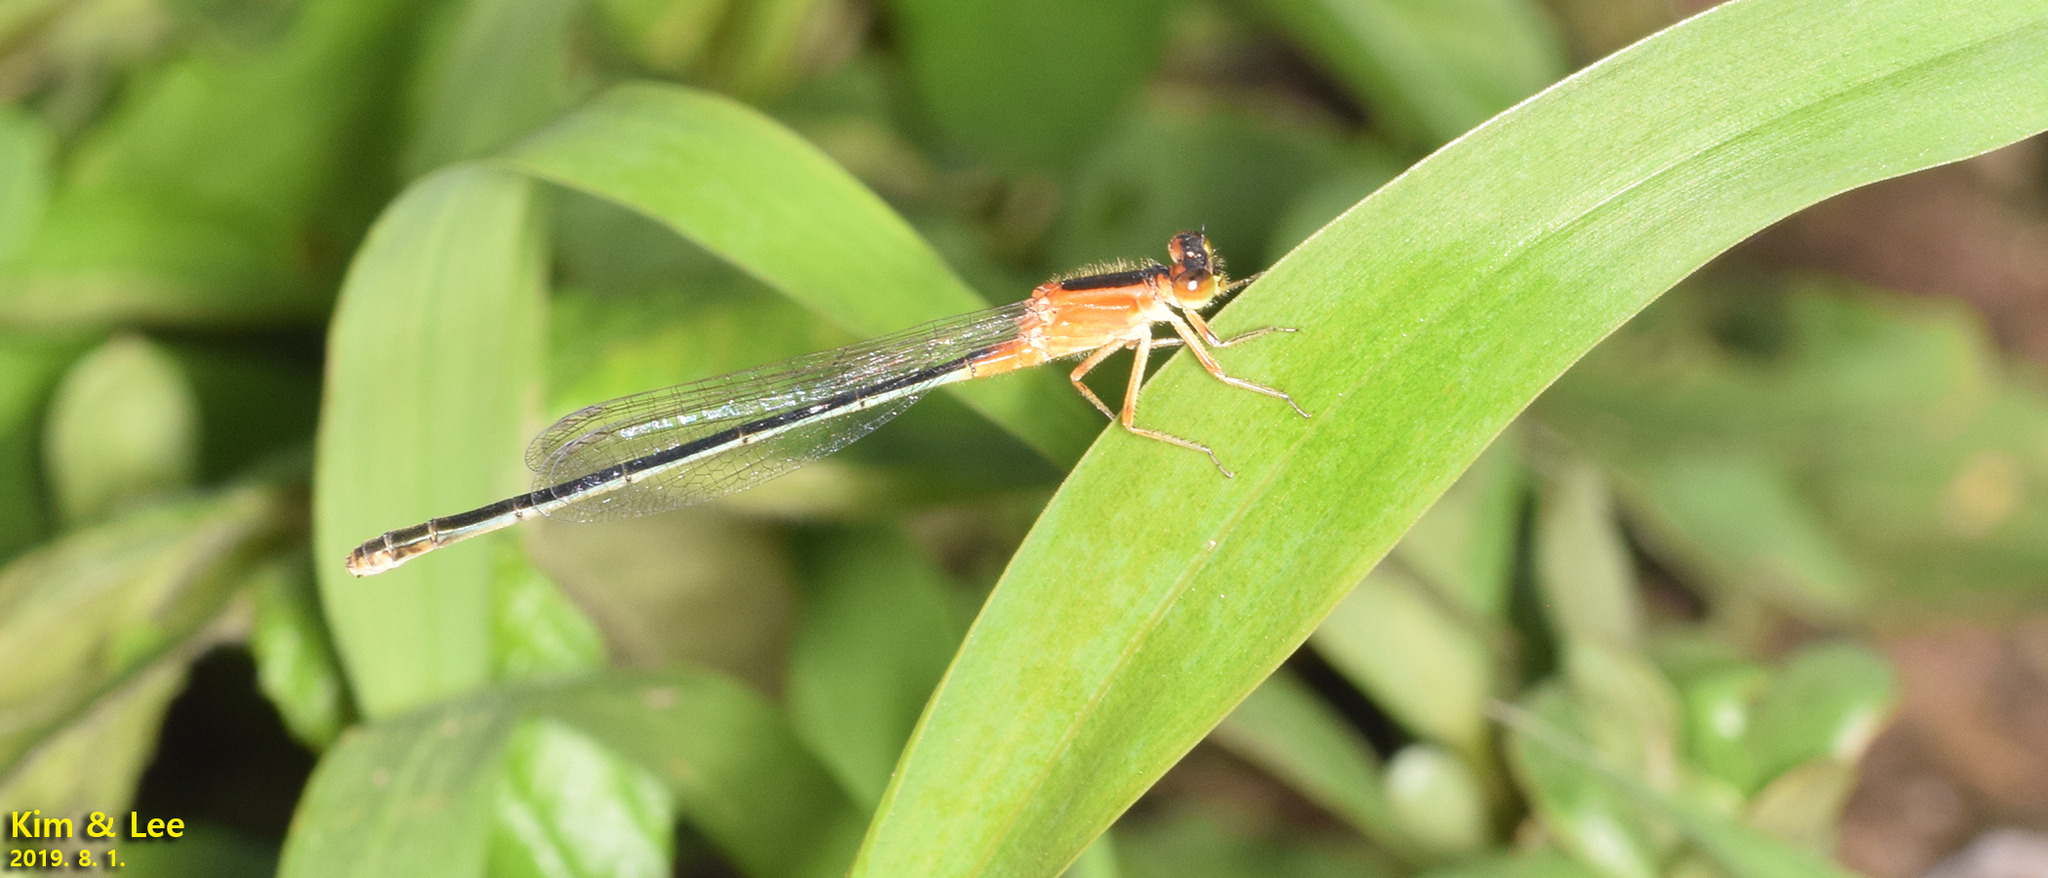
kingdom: Animalia
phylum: Arthropoda
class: Insecta
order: Odonata
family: Coenagrionidae
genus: Ischnura
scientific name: Ischnura senegalensis
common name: Tropical bluetail
